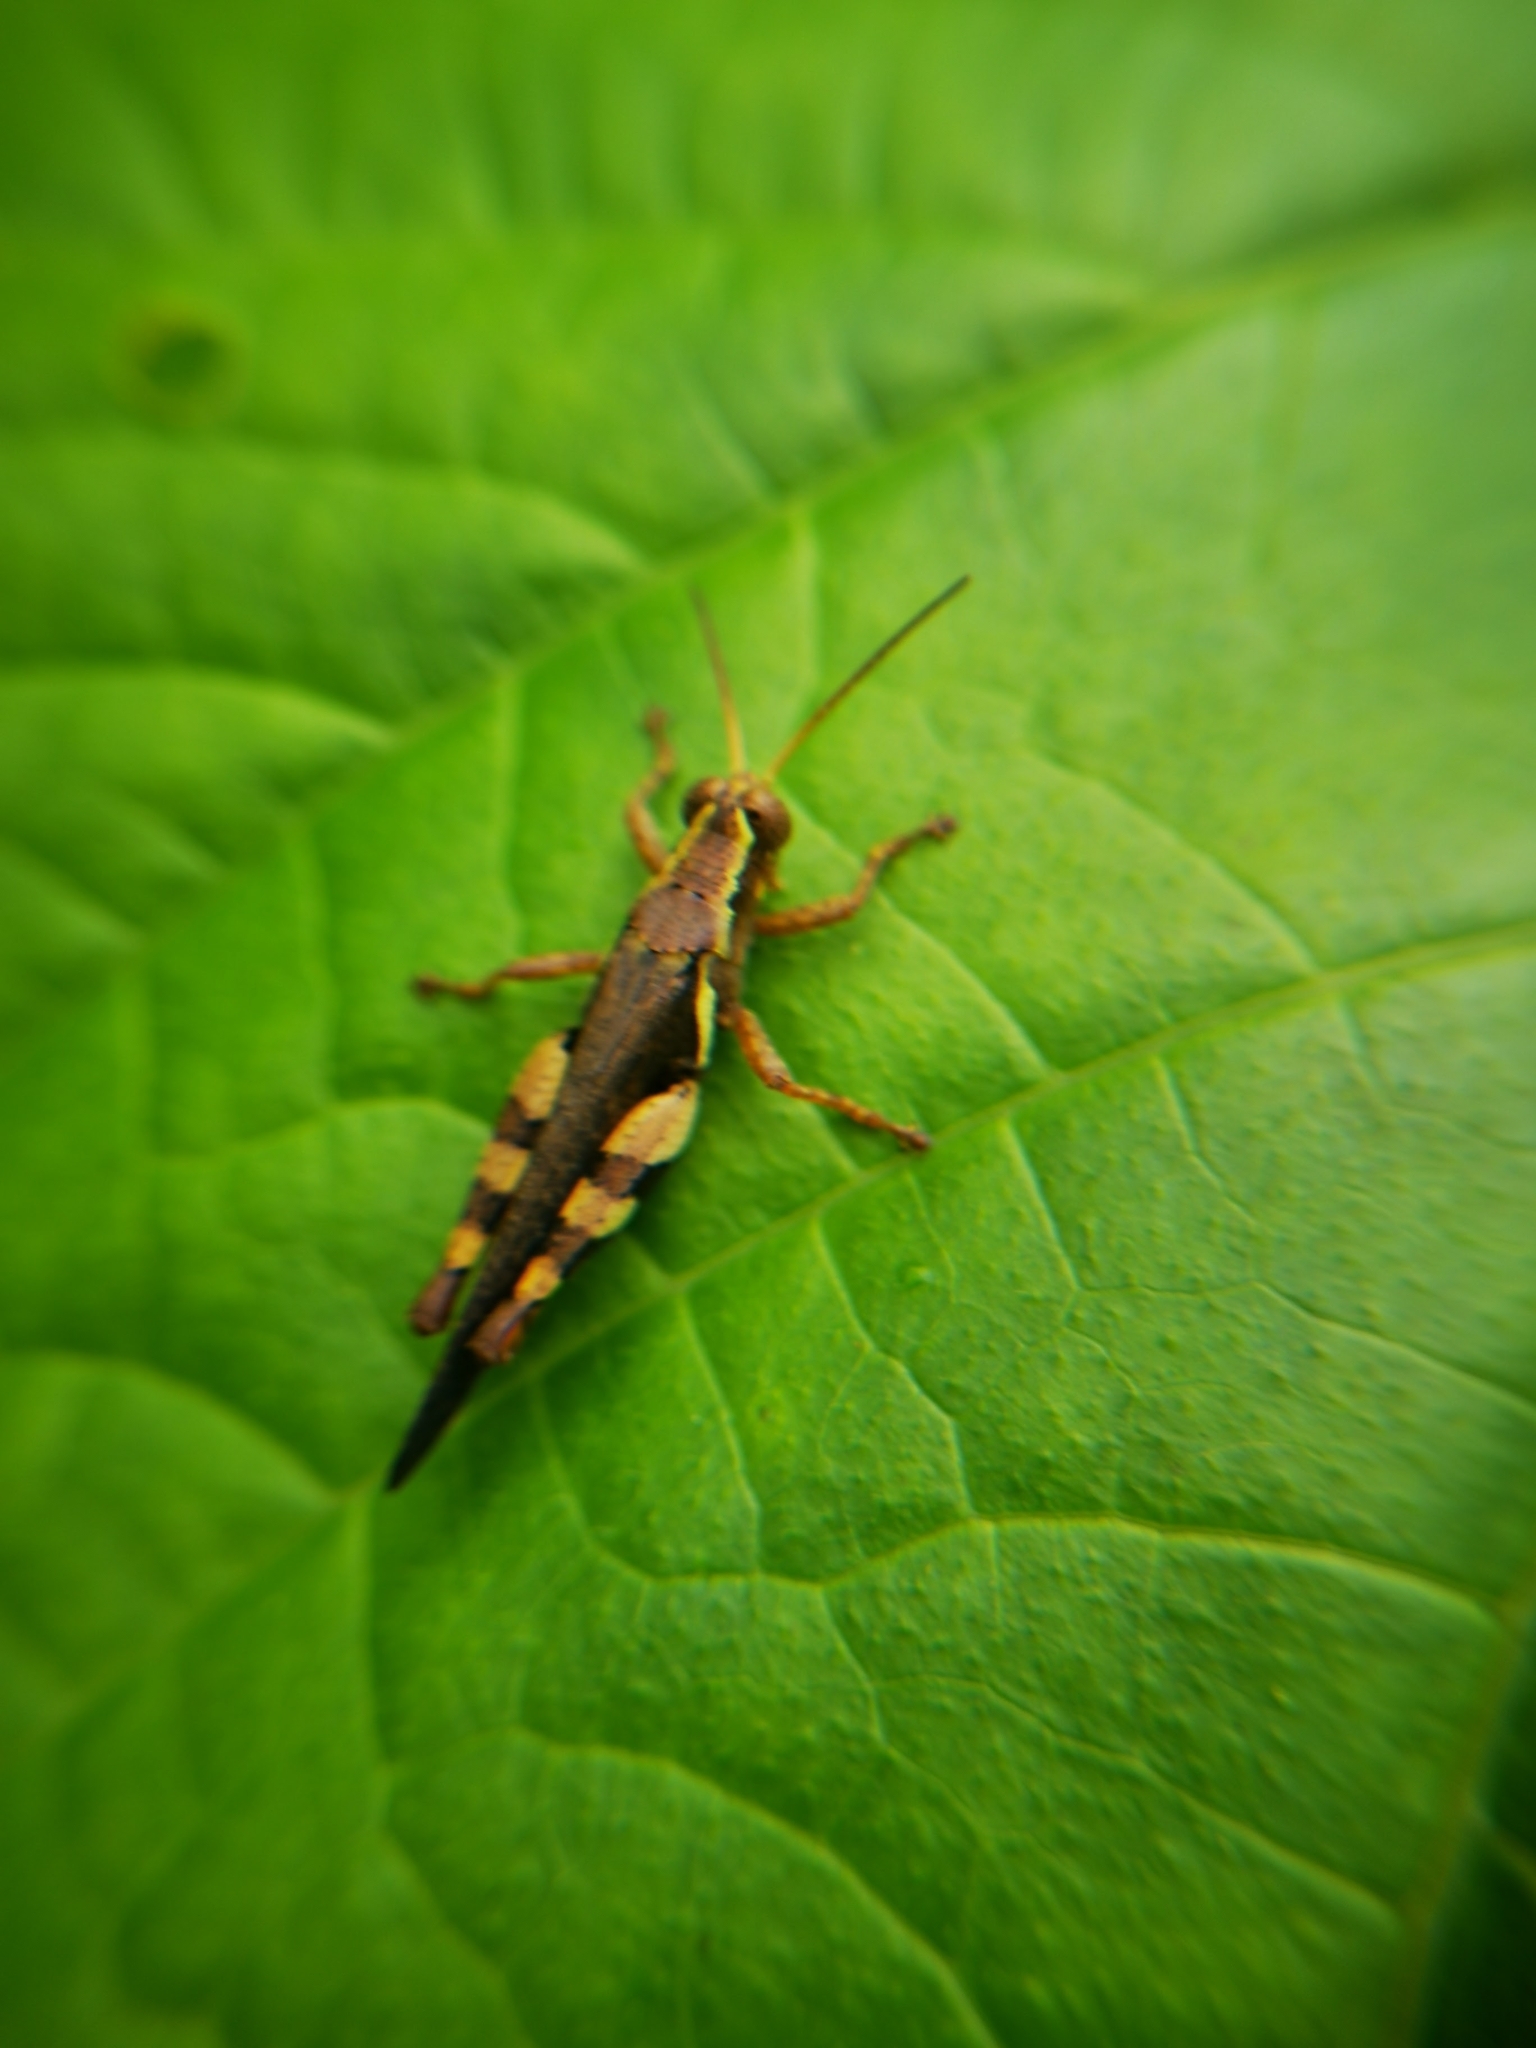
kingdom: Animalia
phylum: Arthropoda
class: Insecta
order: Orthoptera
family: Acrididae
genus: Xenocatantops
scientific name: Xenocatantops humile
